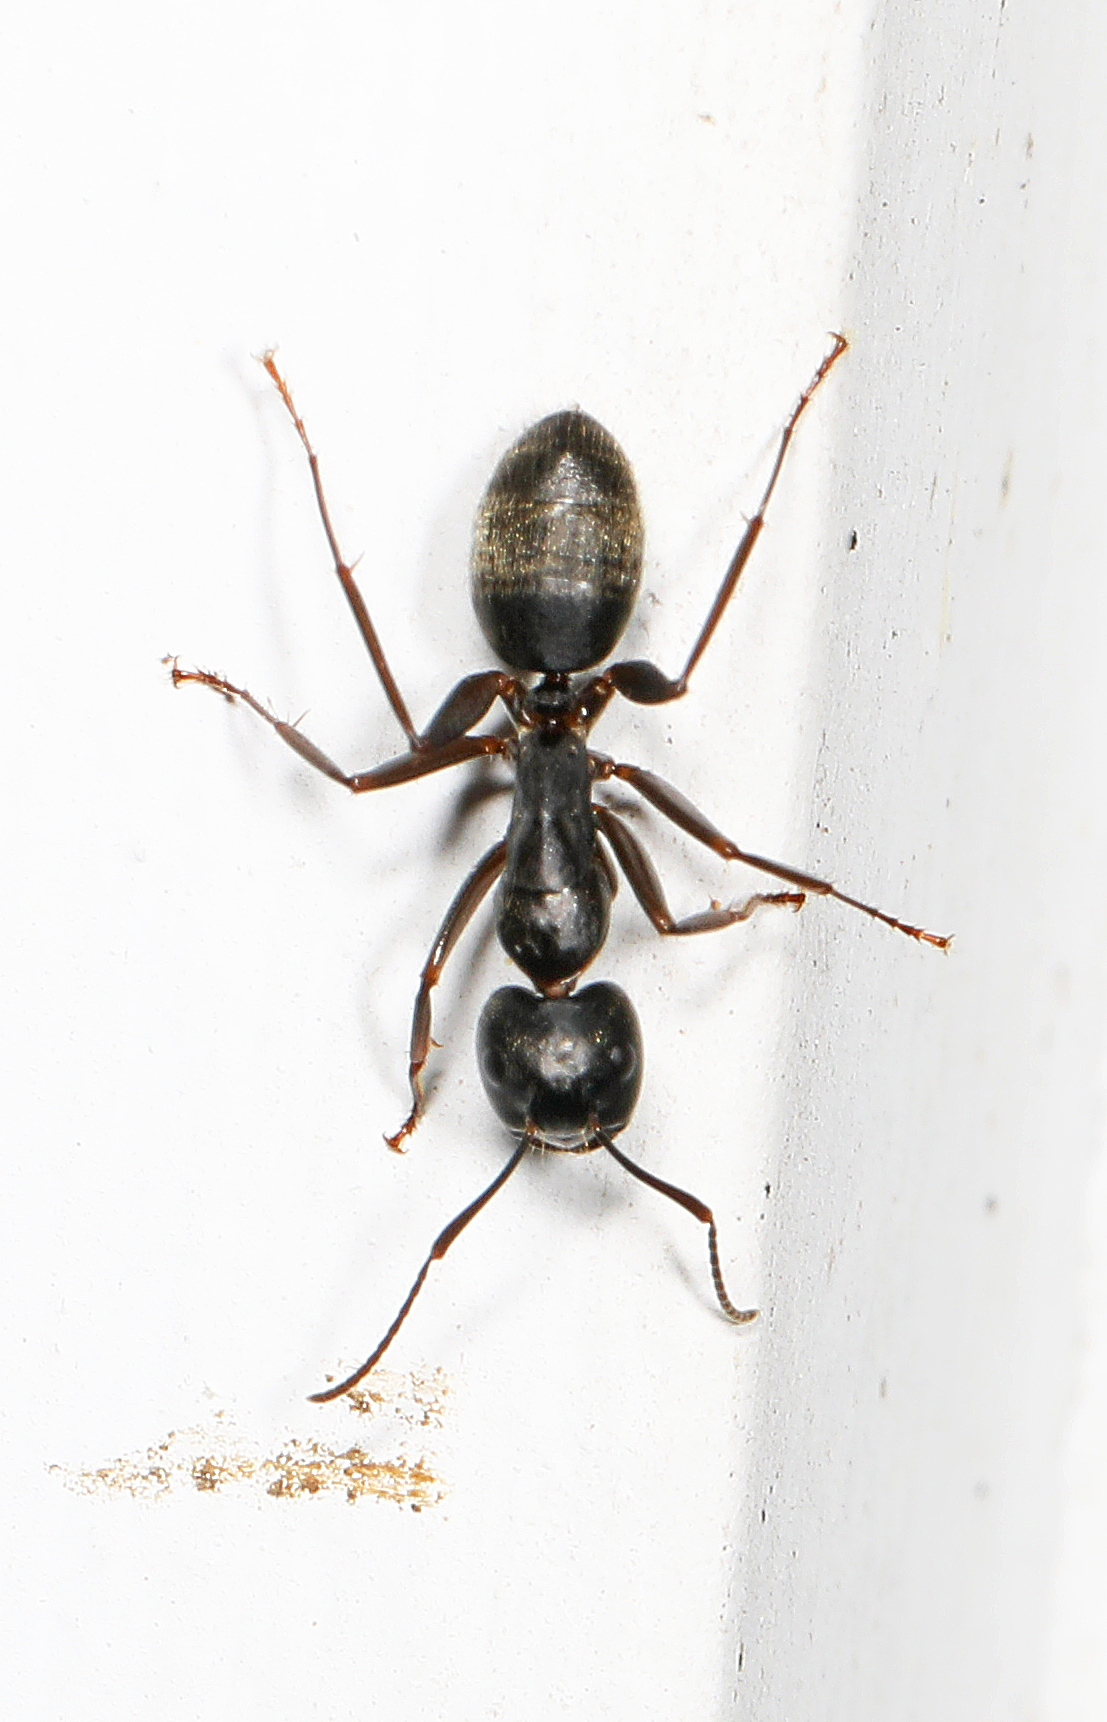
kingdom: Animalia
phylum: Arthropoda
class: Insecta
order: Hymenoptera
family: Formicidae
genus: Camponotus
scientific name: Camponotus pennsylvanicus
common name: Black carpenter ant
